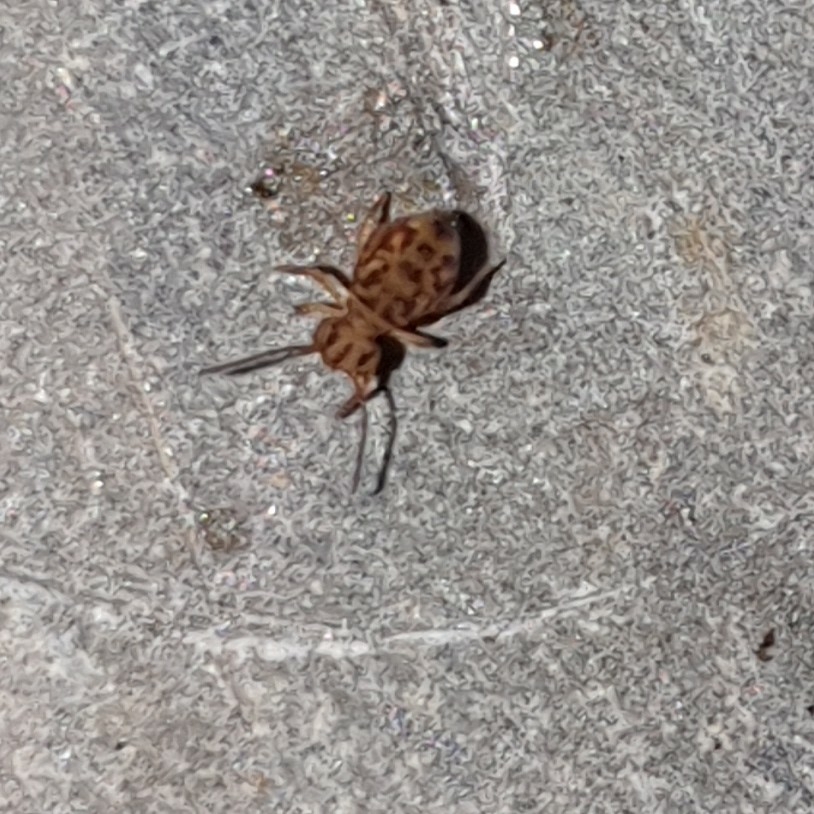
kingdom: Animalia
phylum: Arthropoda
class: Collembola
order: Symphypleona
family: Dicyrtomidae
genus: Dicyrtomina
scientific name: Dicyrtomina ornata
